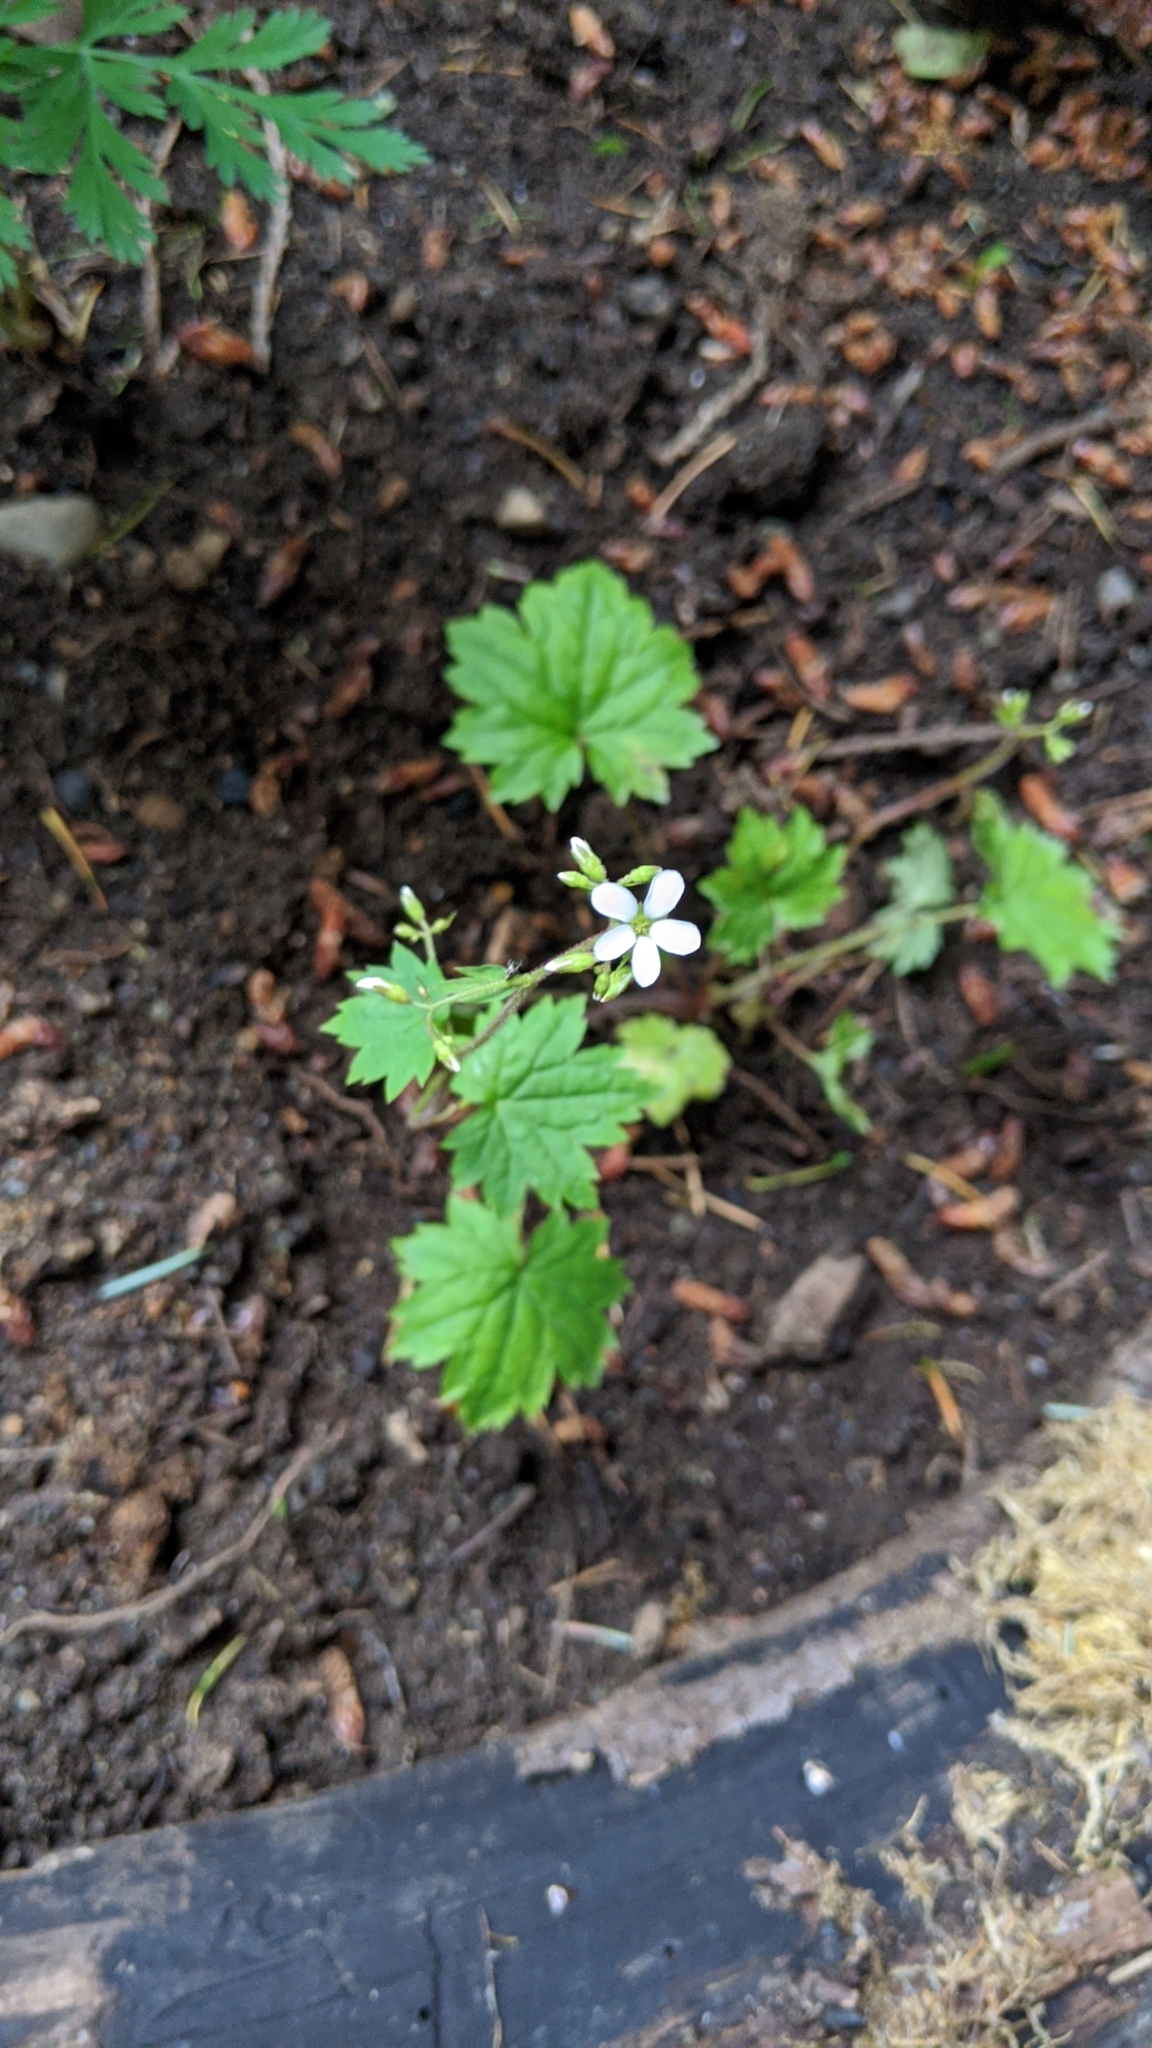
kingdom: Plantae
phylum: Tracheophyta
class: Magnoliopsida
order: Saxifragales
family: Saxifragaceae
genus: Boykinia
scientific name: Boykinia occidentalis
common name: Coast boykinia
